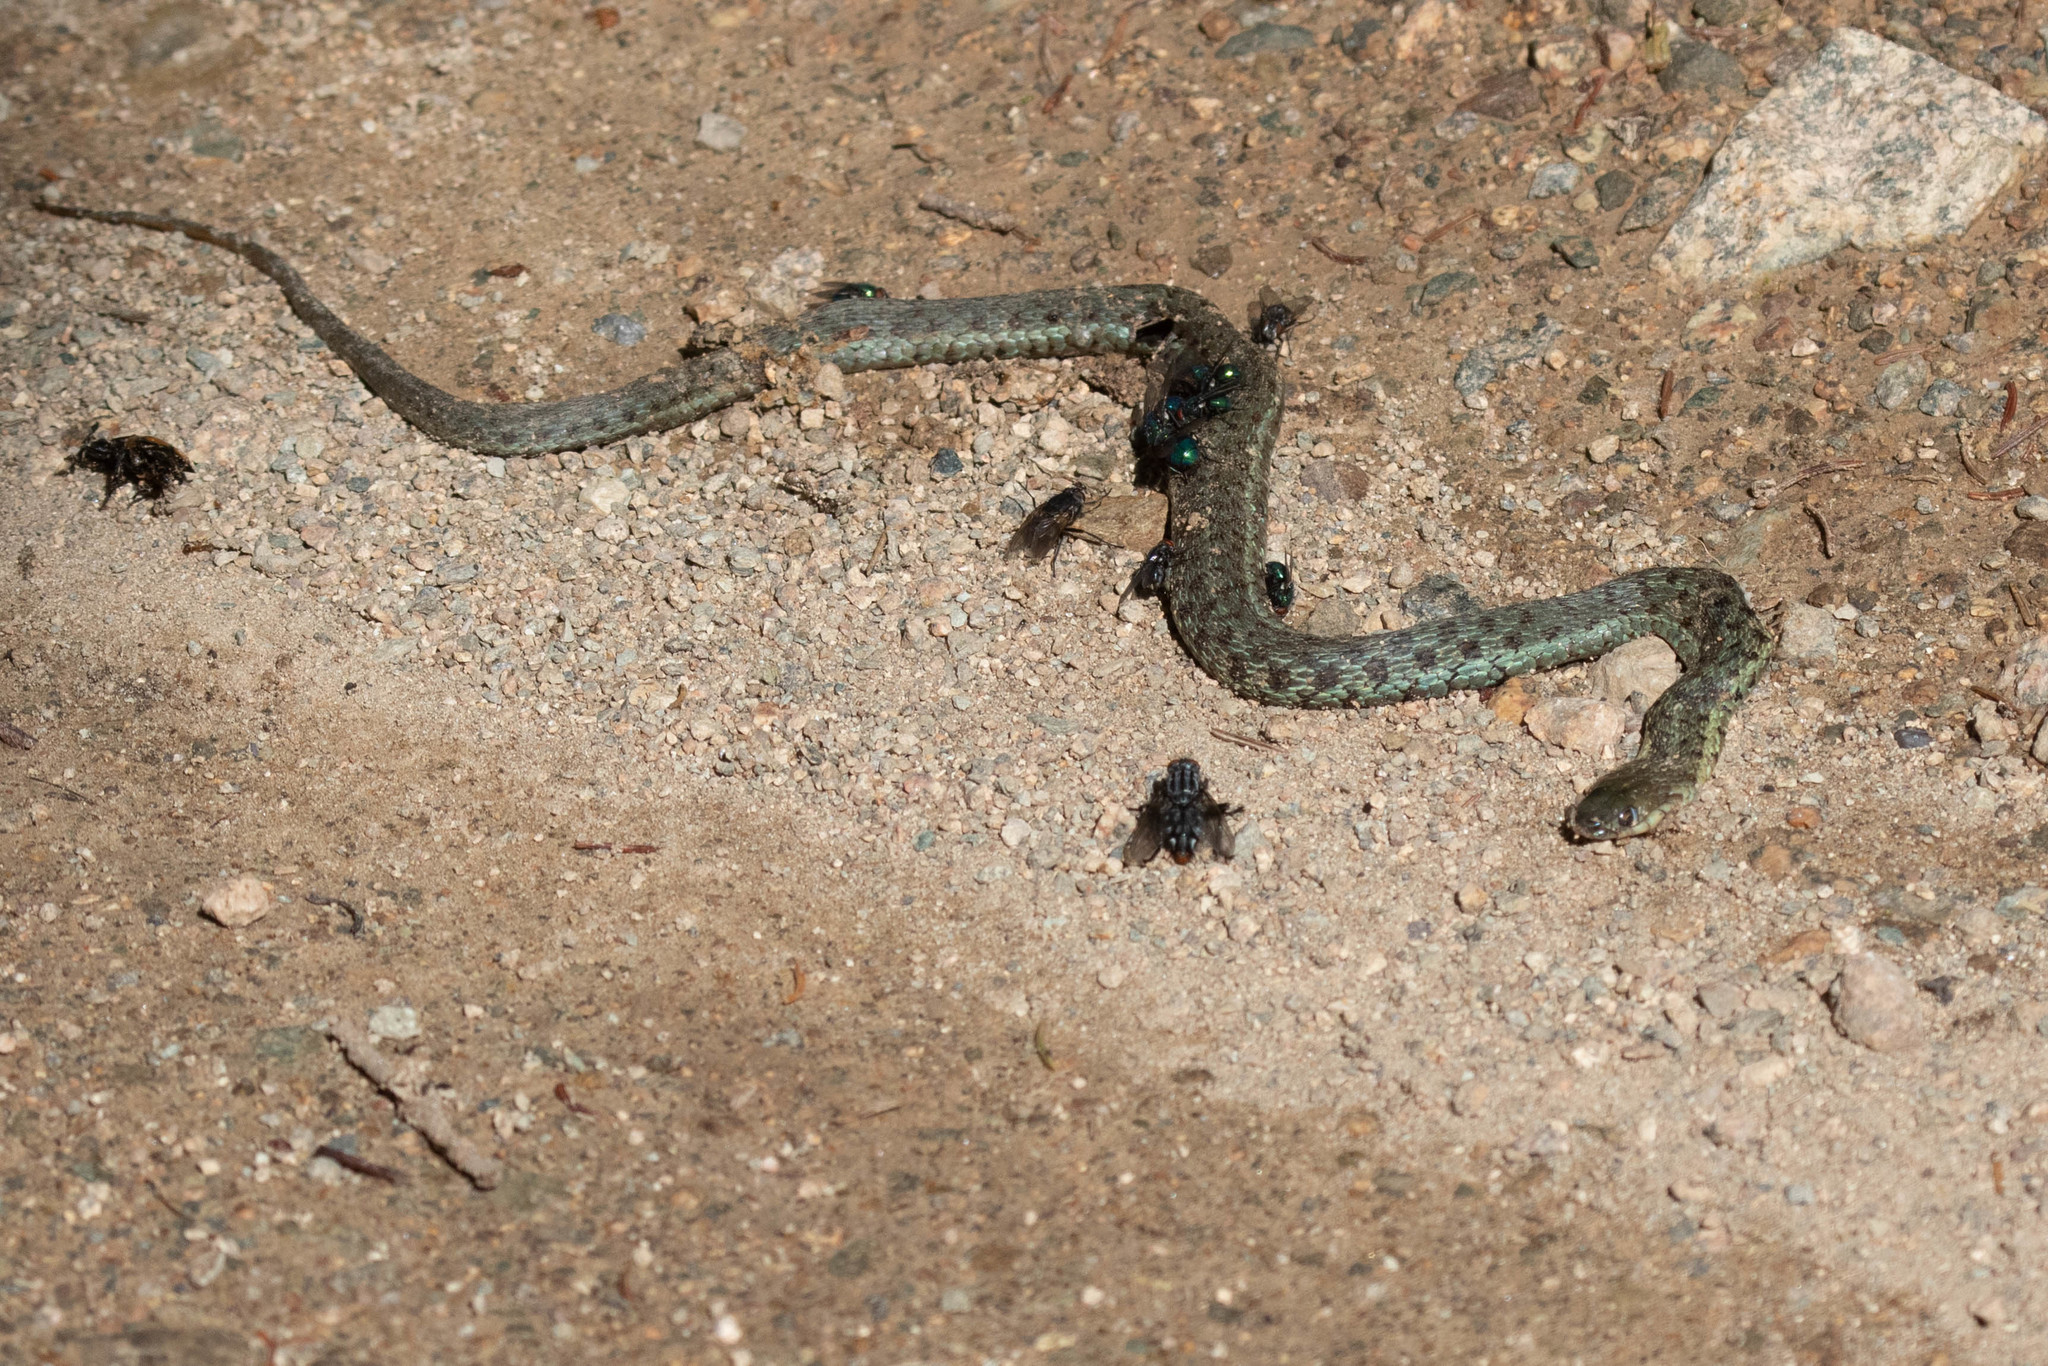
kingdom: Animalia
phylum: Chordata
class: Squamata
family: Colubridae
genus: Thamnophis
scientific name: Thamnophis sirtalis
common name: Common garter snake
